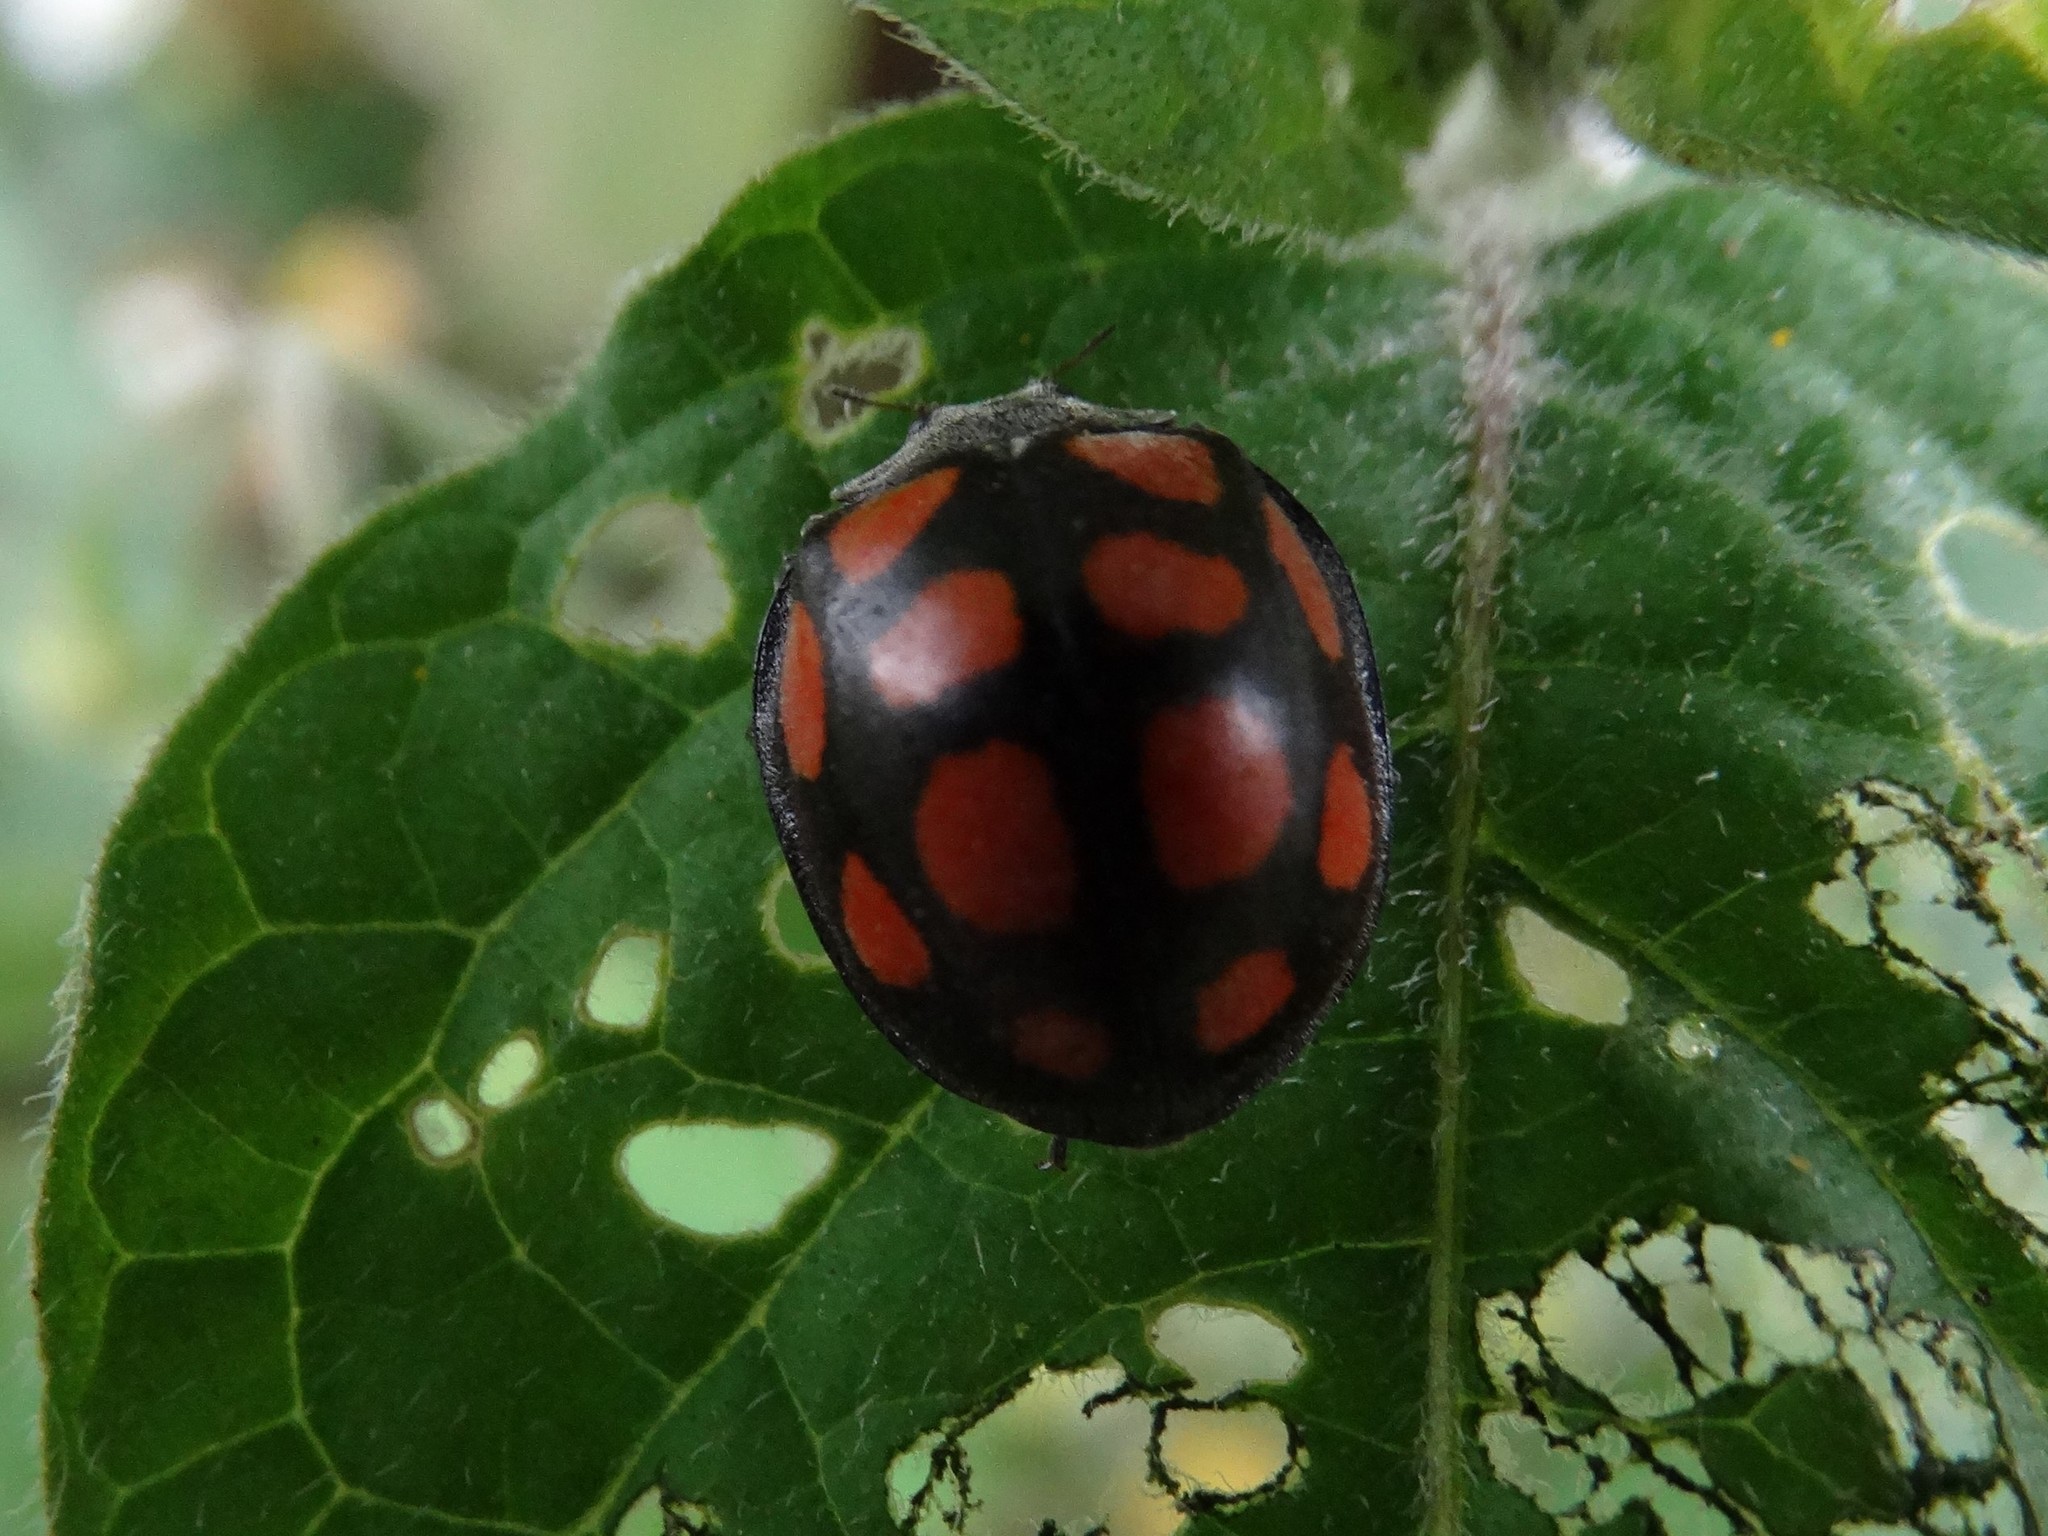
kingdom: Animalia
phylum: Arthropoda
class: Insecta
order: Coleoptera
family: Coccinellidae
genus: Epilachna
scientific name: Epilachna
